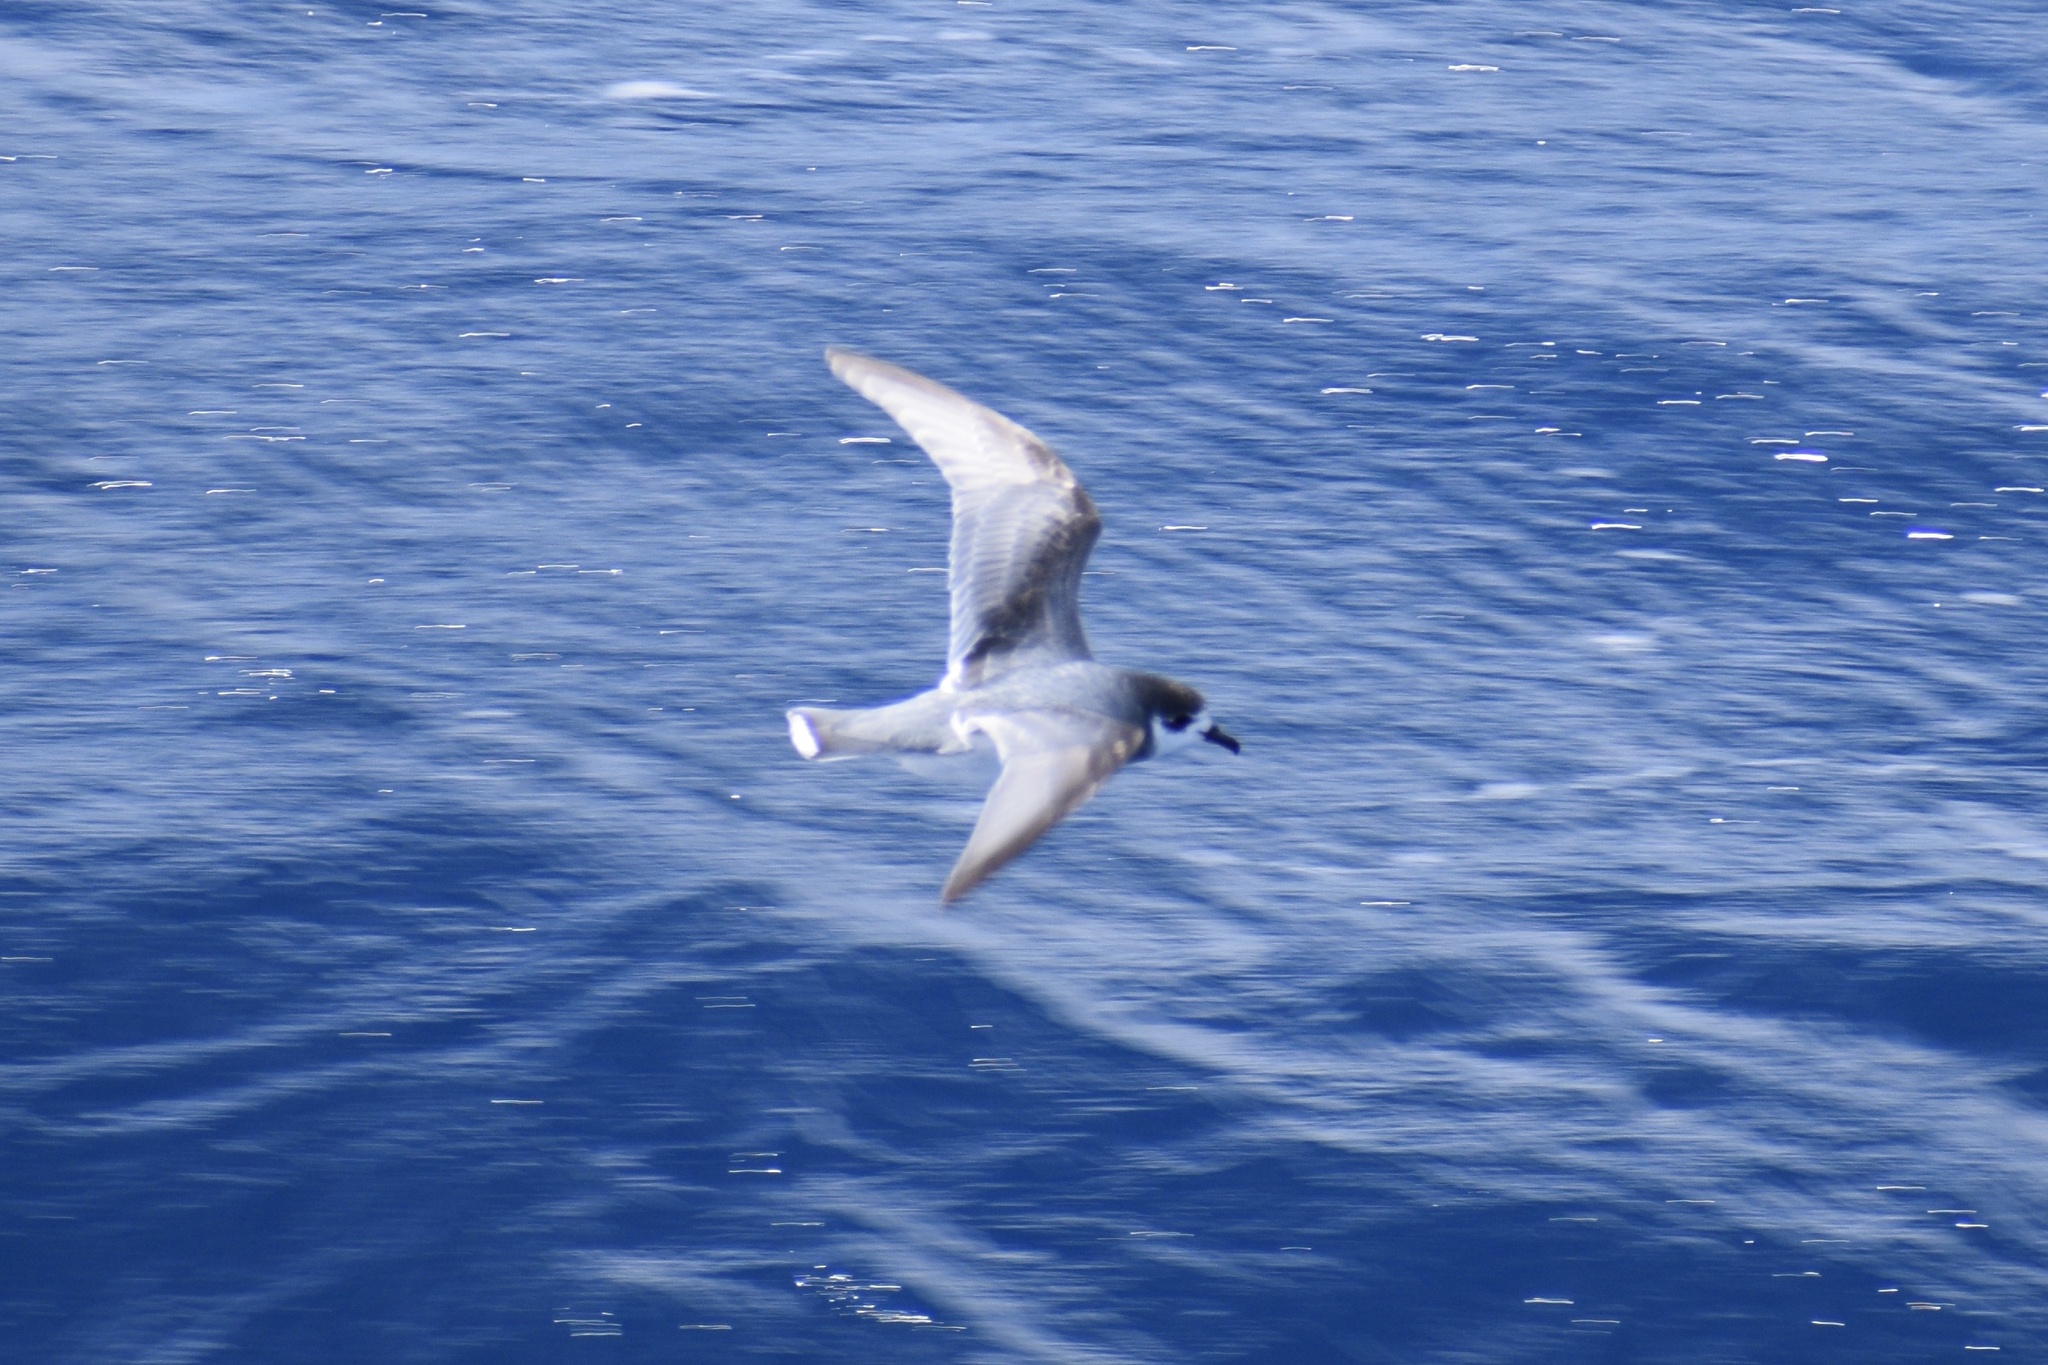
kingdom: Animalia
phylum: Chordata
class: Aves
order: Procellariiformes
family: Procellariidae
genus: Halobaena
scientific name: Halobaena caerulea
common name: Blue petrel
